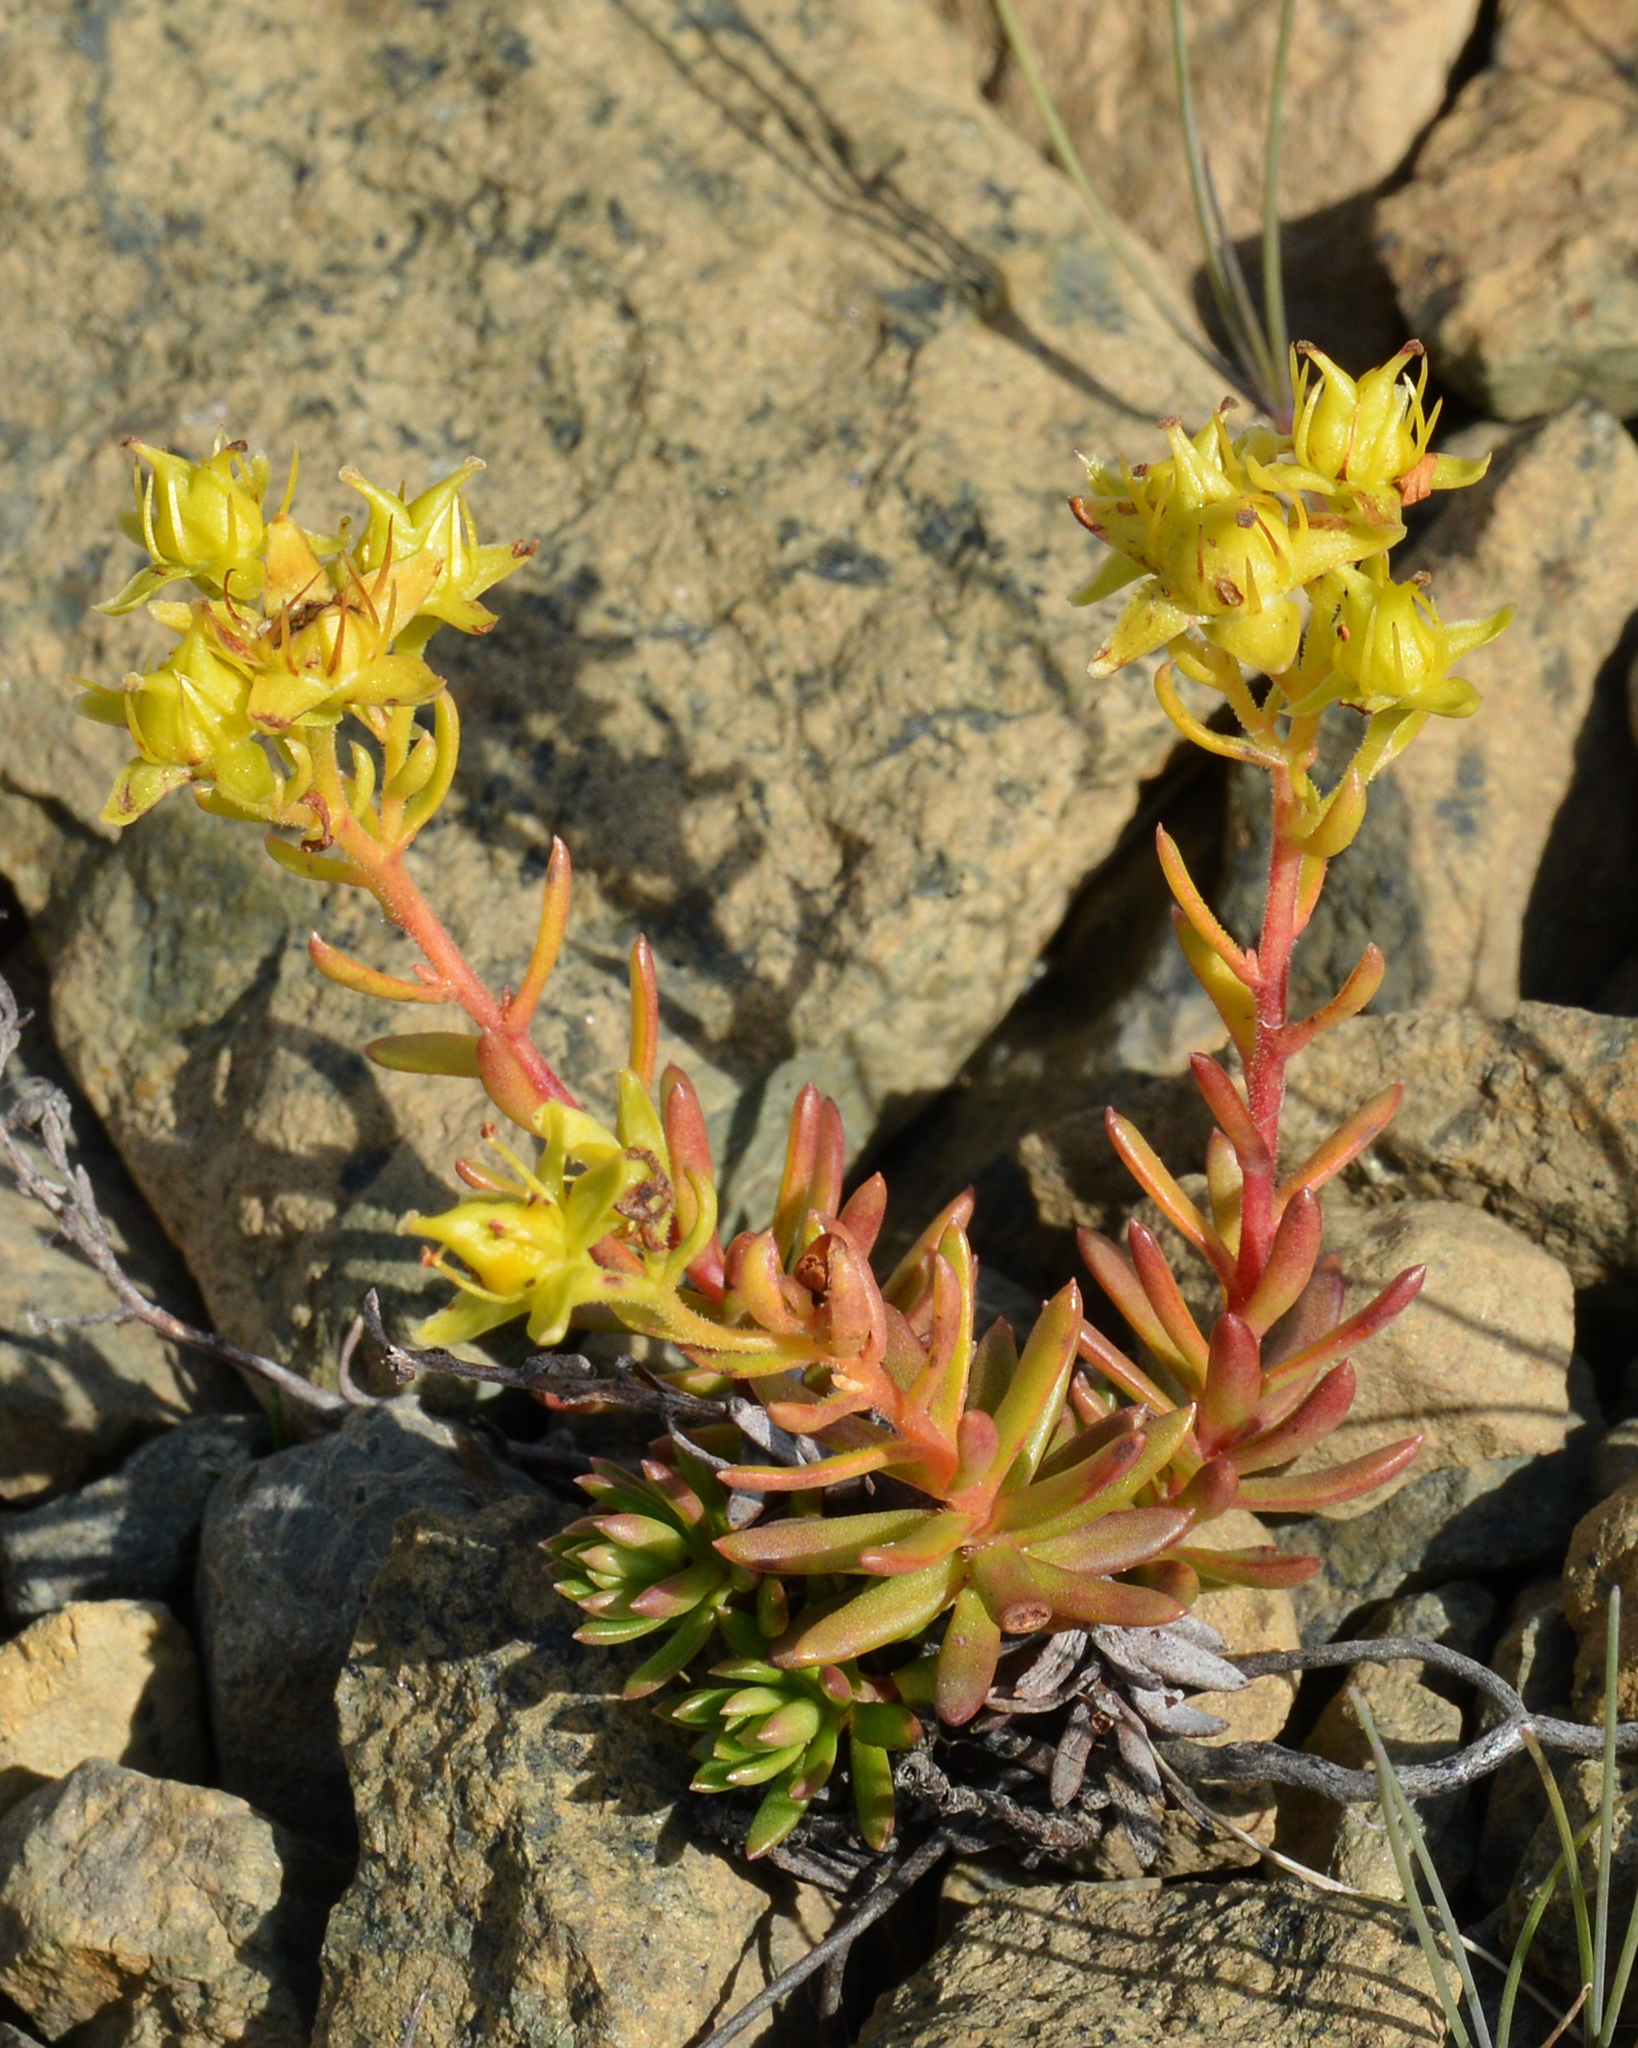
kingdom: Plantae
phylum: Tracheophyta
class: Magnoliopsida
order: Saxifragales
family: Saxifragaceae
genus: Saxifraga
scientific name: Saxifraga aizoides
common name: Yellow mountain saxifrage
